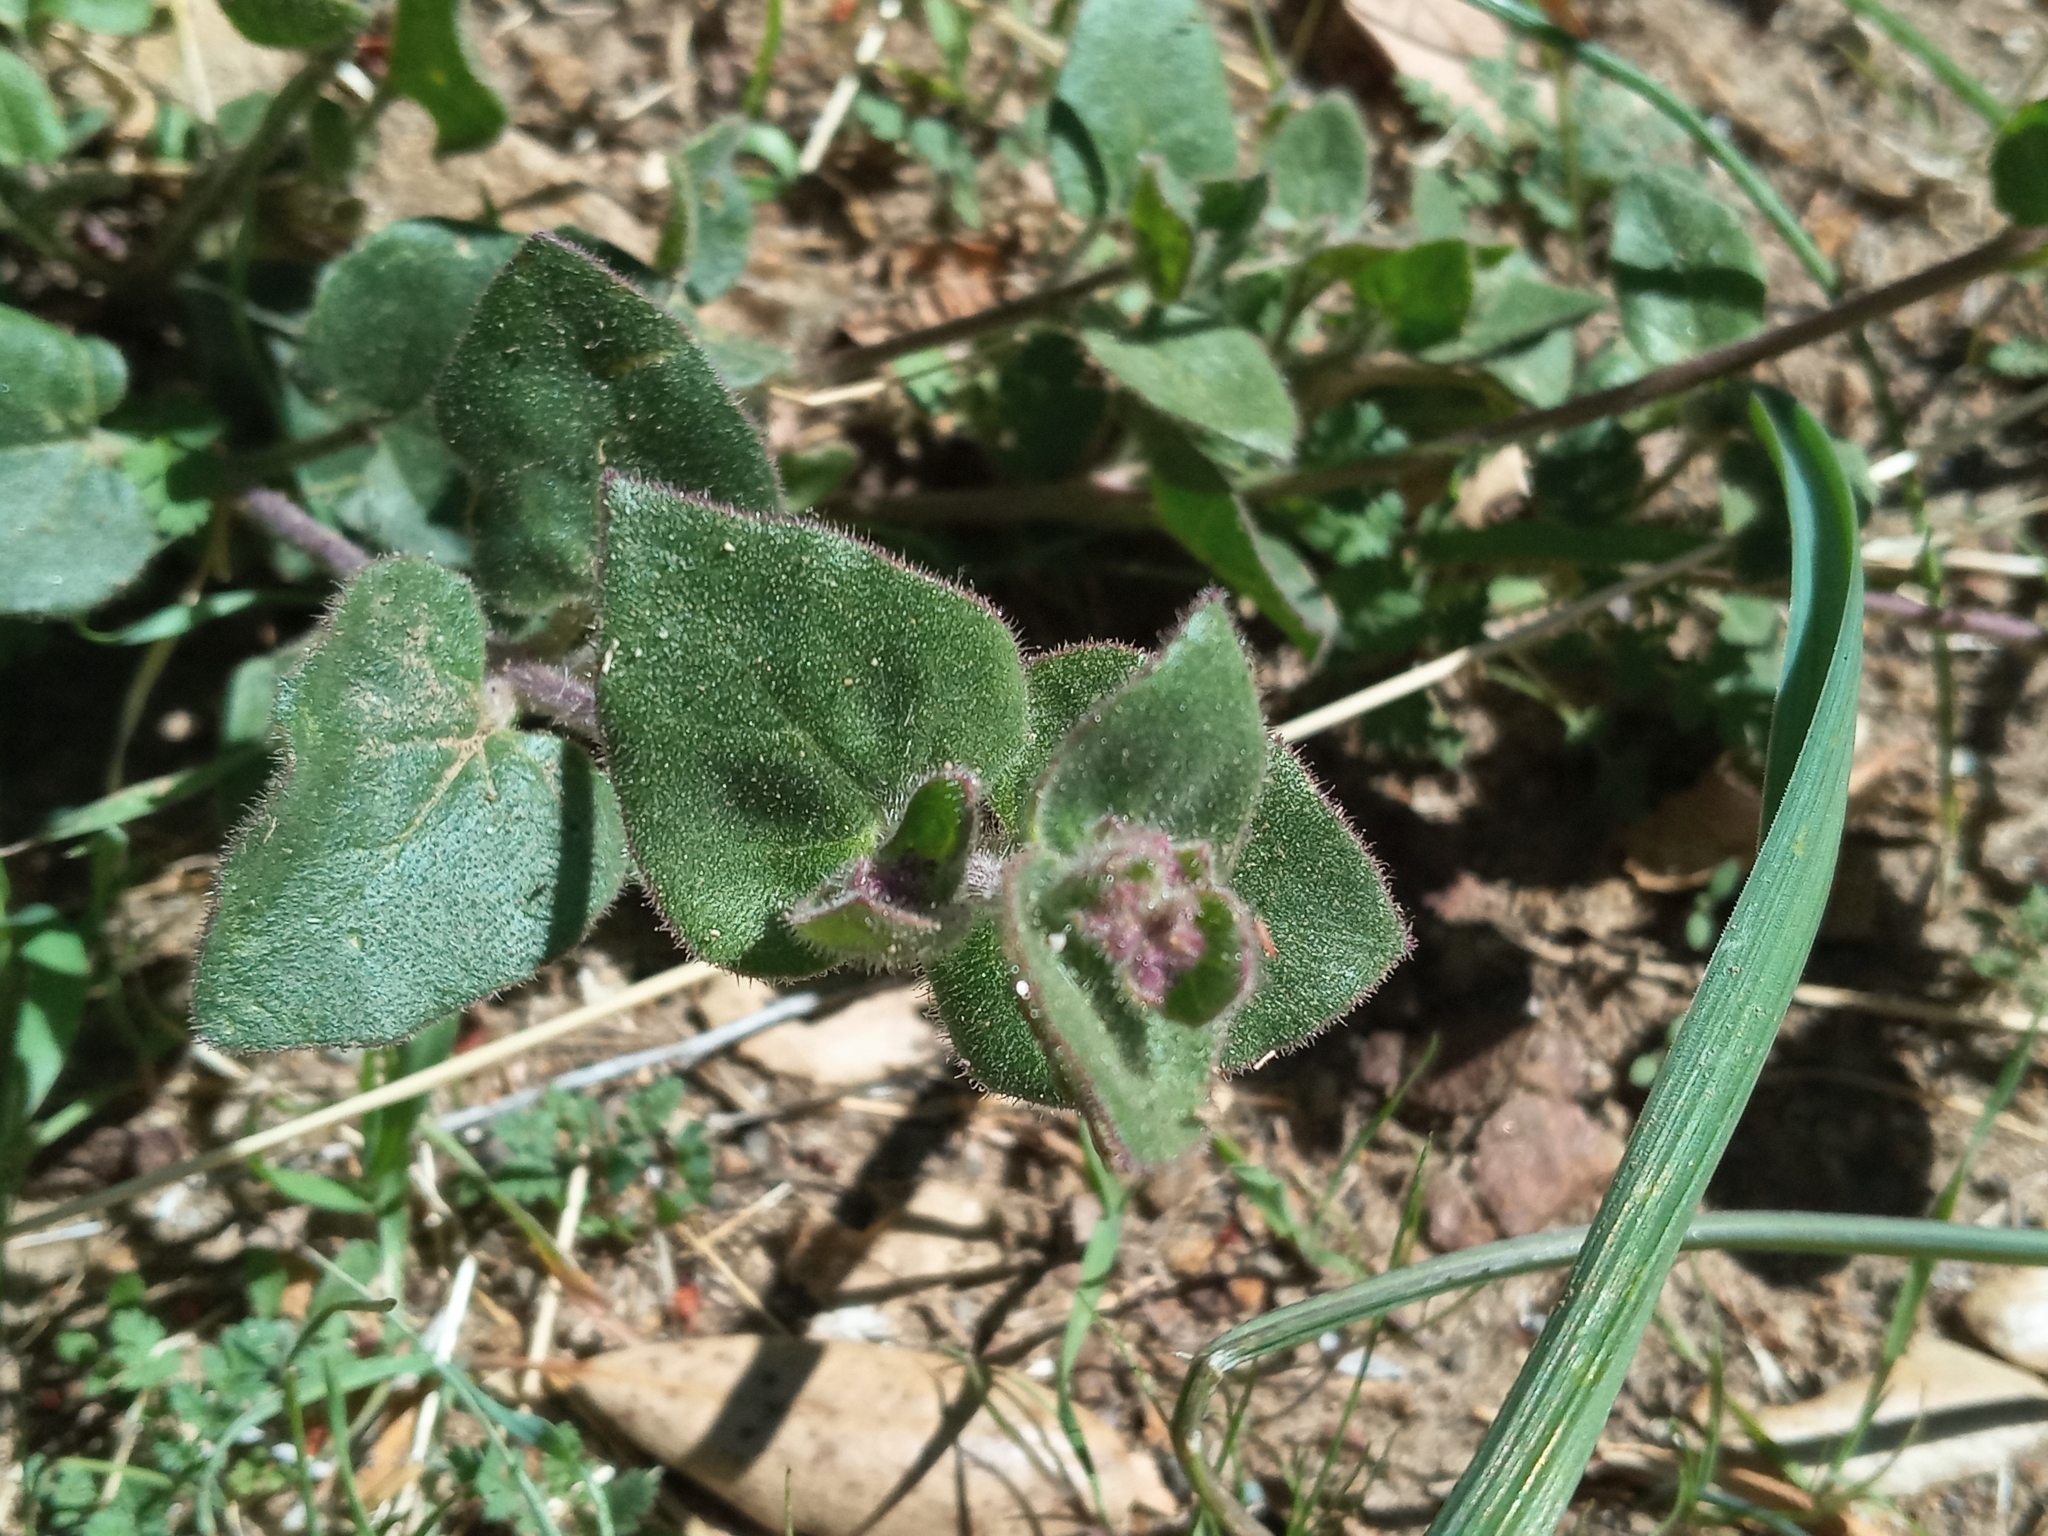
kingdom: Plantae
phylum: Tracheophyta
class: Magnoliopsida
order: Caryophyllales
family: Nyctaginaceae
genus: Mirabilis
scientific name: Mirabilis laevis
